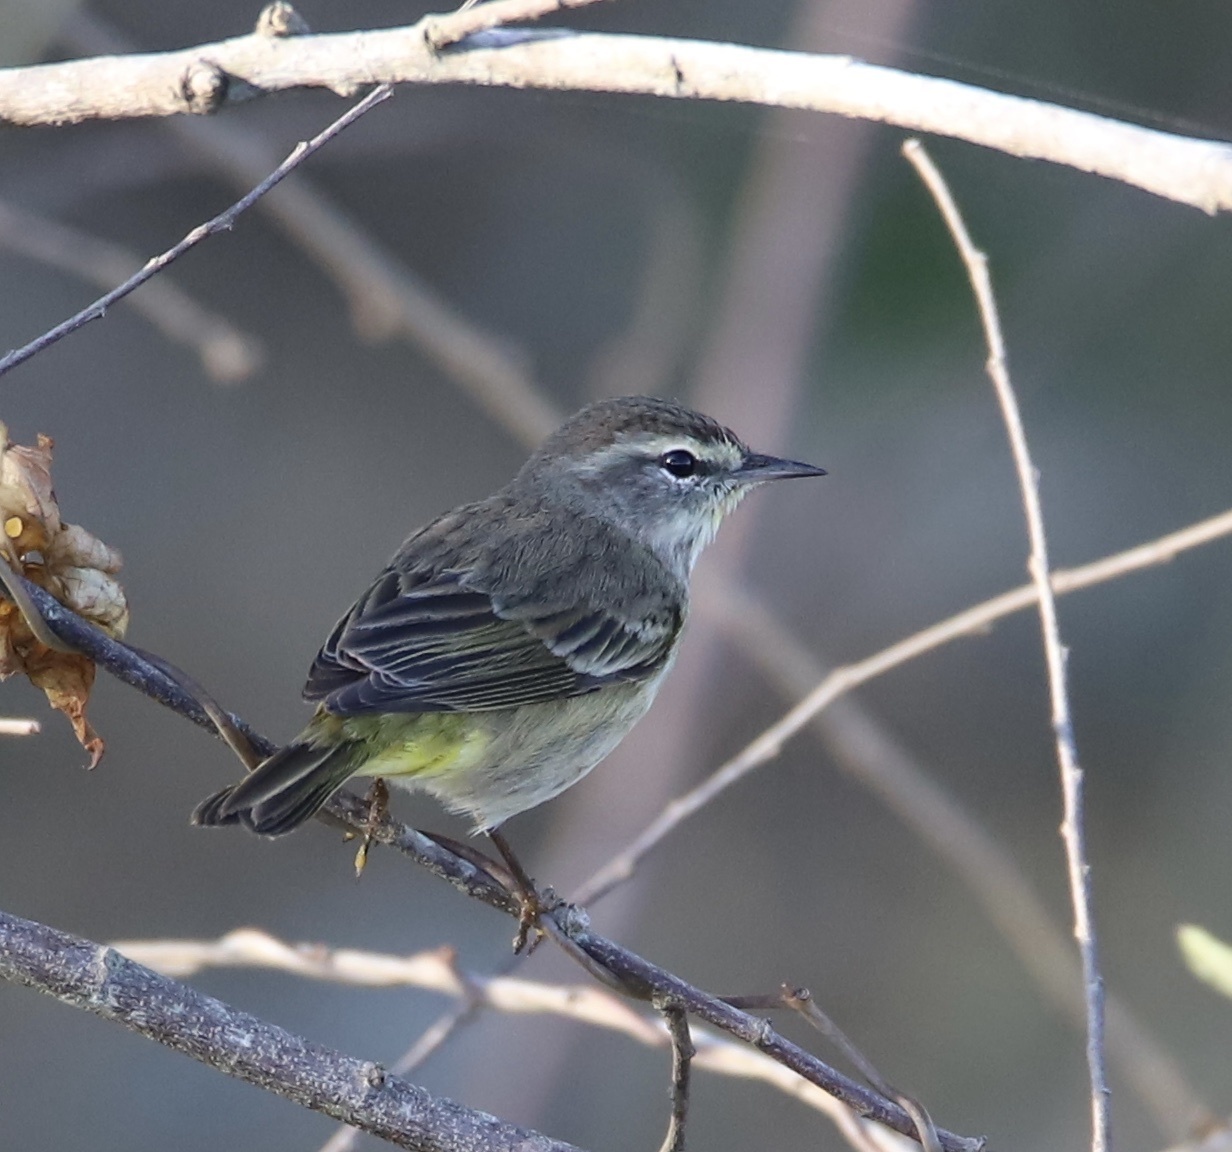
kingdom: Animalia
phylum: Chordata
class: Aves
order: Passeriformes
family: Parulidae
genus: Setophaga
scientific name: Setophaga palmarum
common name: Palm warbler
